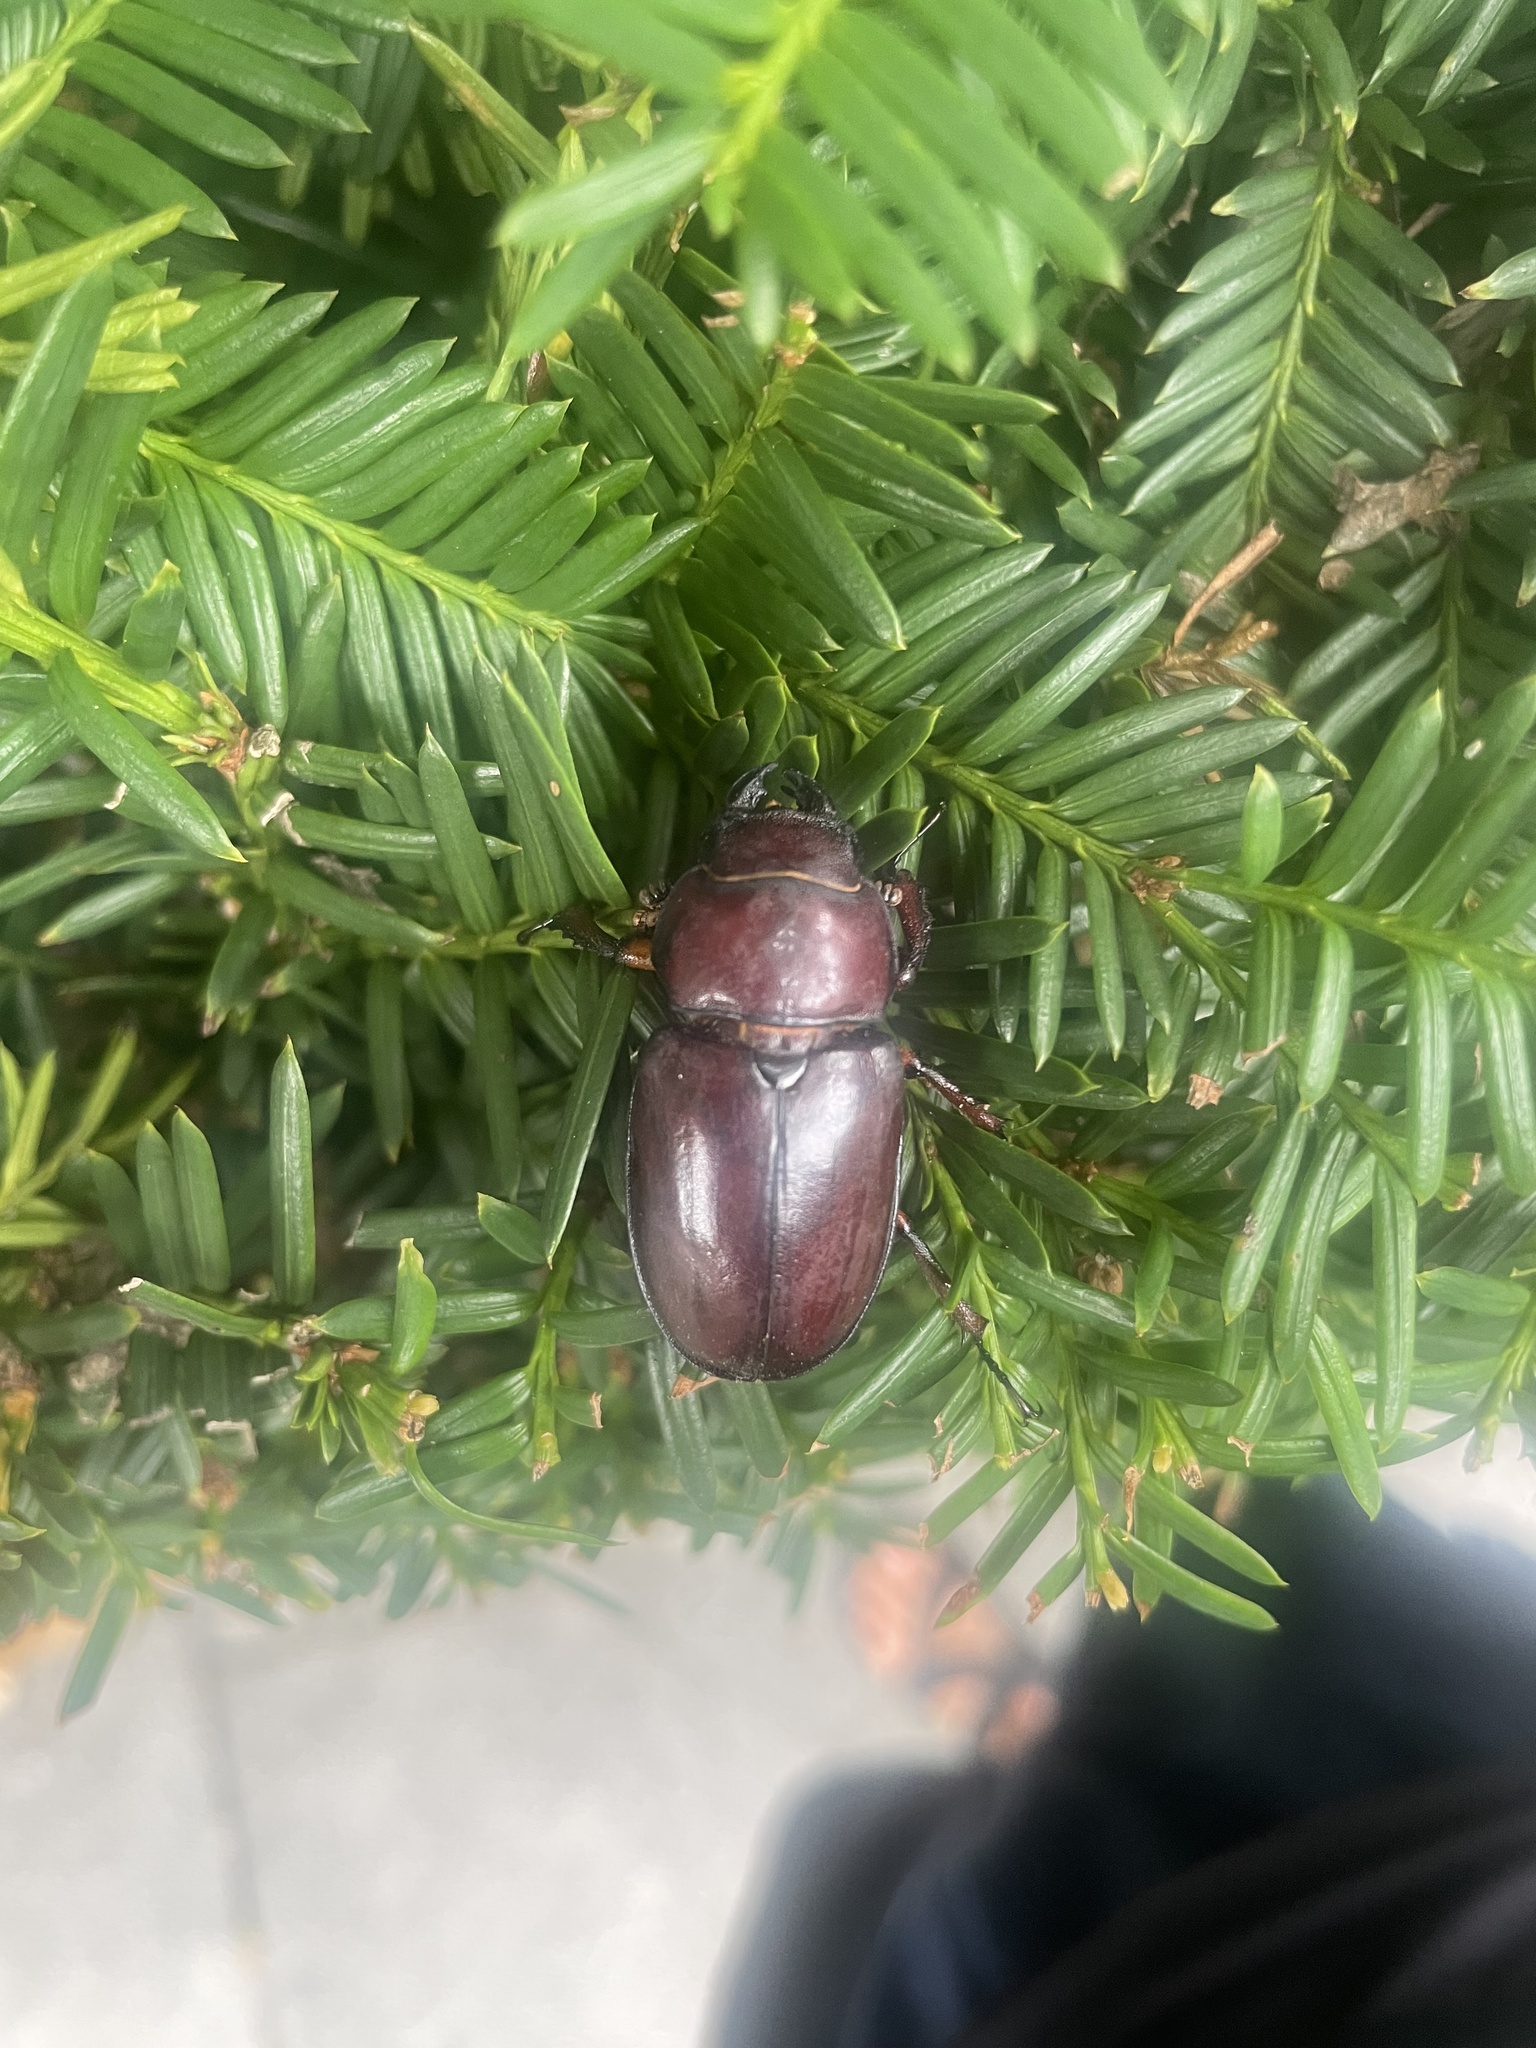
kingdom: Animalia
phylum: Arthropoda
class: Insecta
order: Coleoptera
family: Lucanidae
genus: Lucanus
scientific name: Lucanus capreolus
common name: Stag beetle
